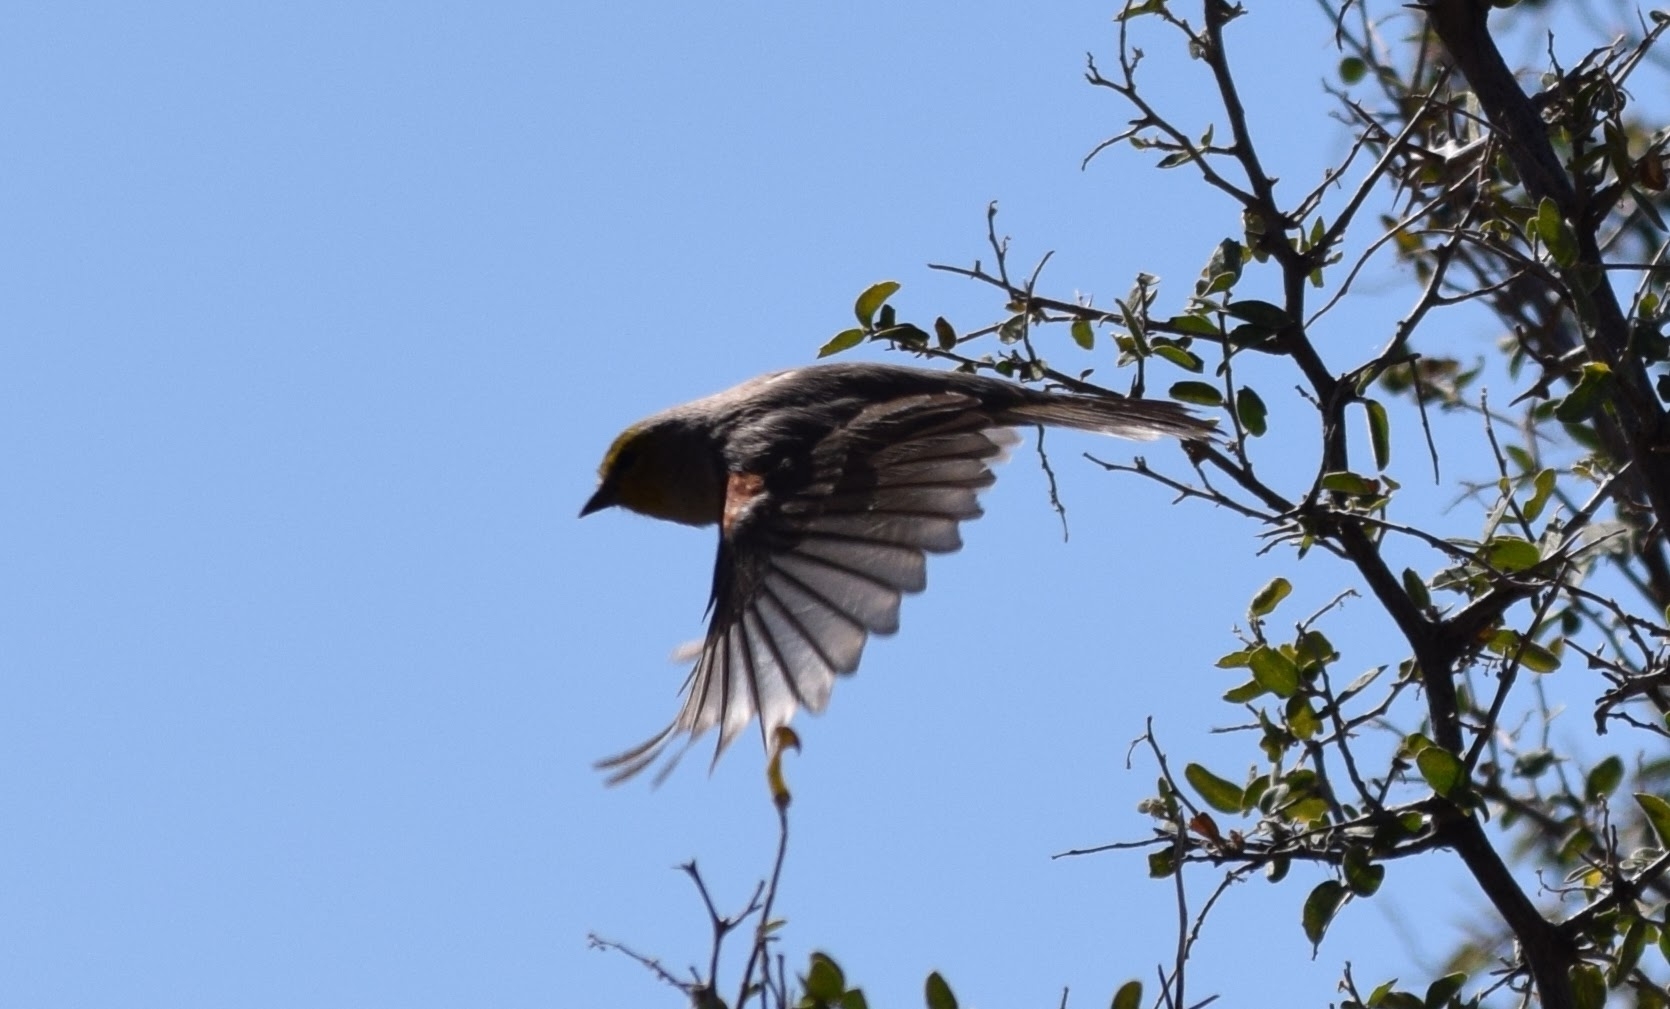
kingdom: Animalia
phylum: Chordata
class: Aves
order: Passeriformes
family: Remizidae
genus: Auriparus
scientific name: Auriparus flaviceps
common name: Verdin
